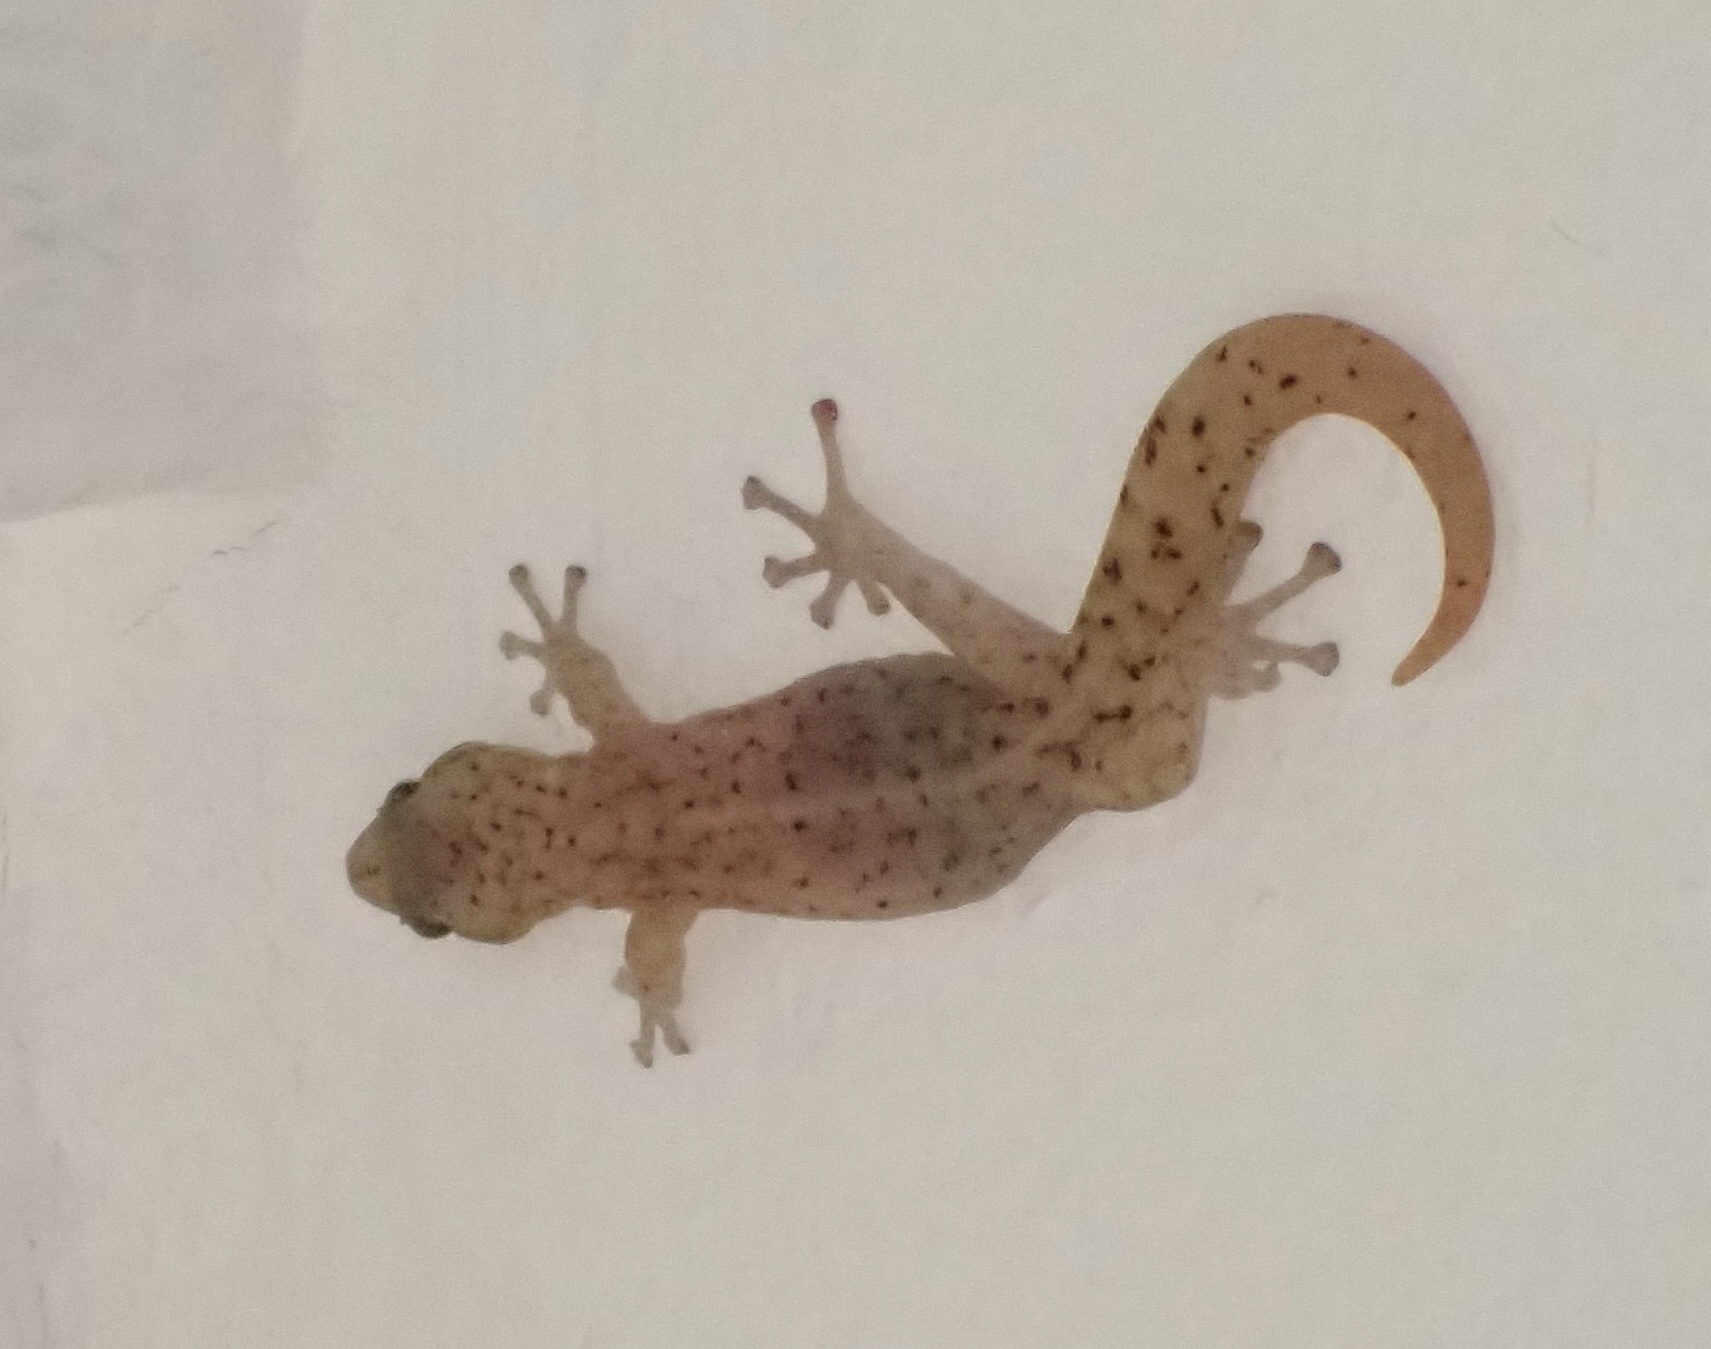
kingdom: Animalia
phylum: Chordata
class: Squamata
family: Gekkonidae
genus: Afrogecko
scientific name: Afrogecko porphyreus
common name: Marbled leaf-toed gecko
